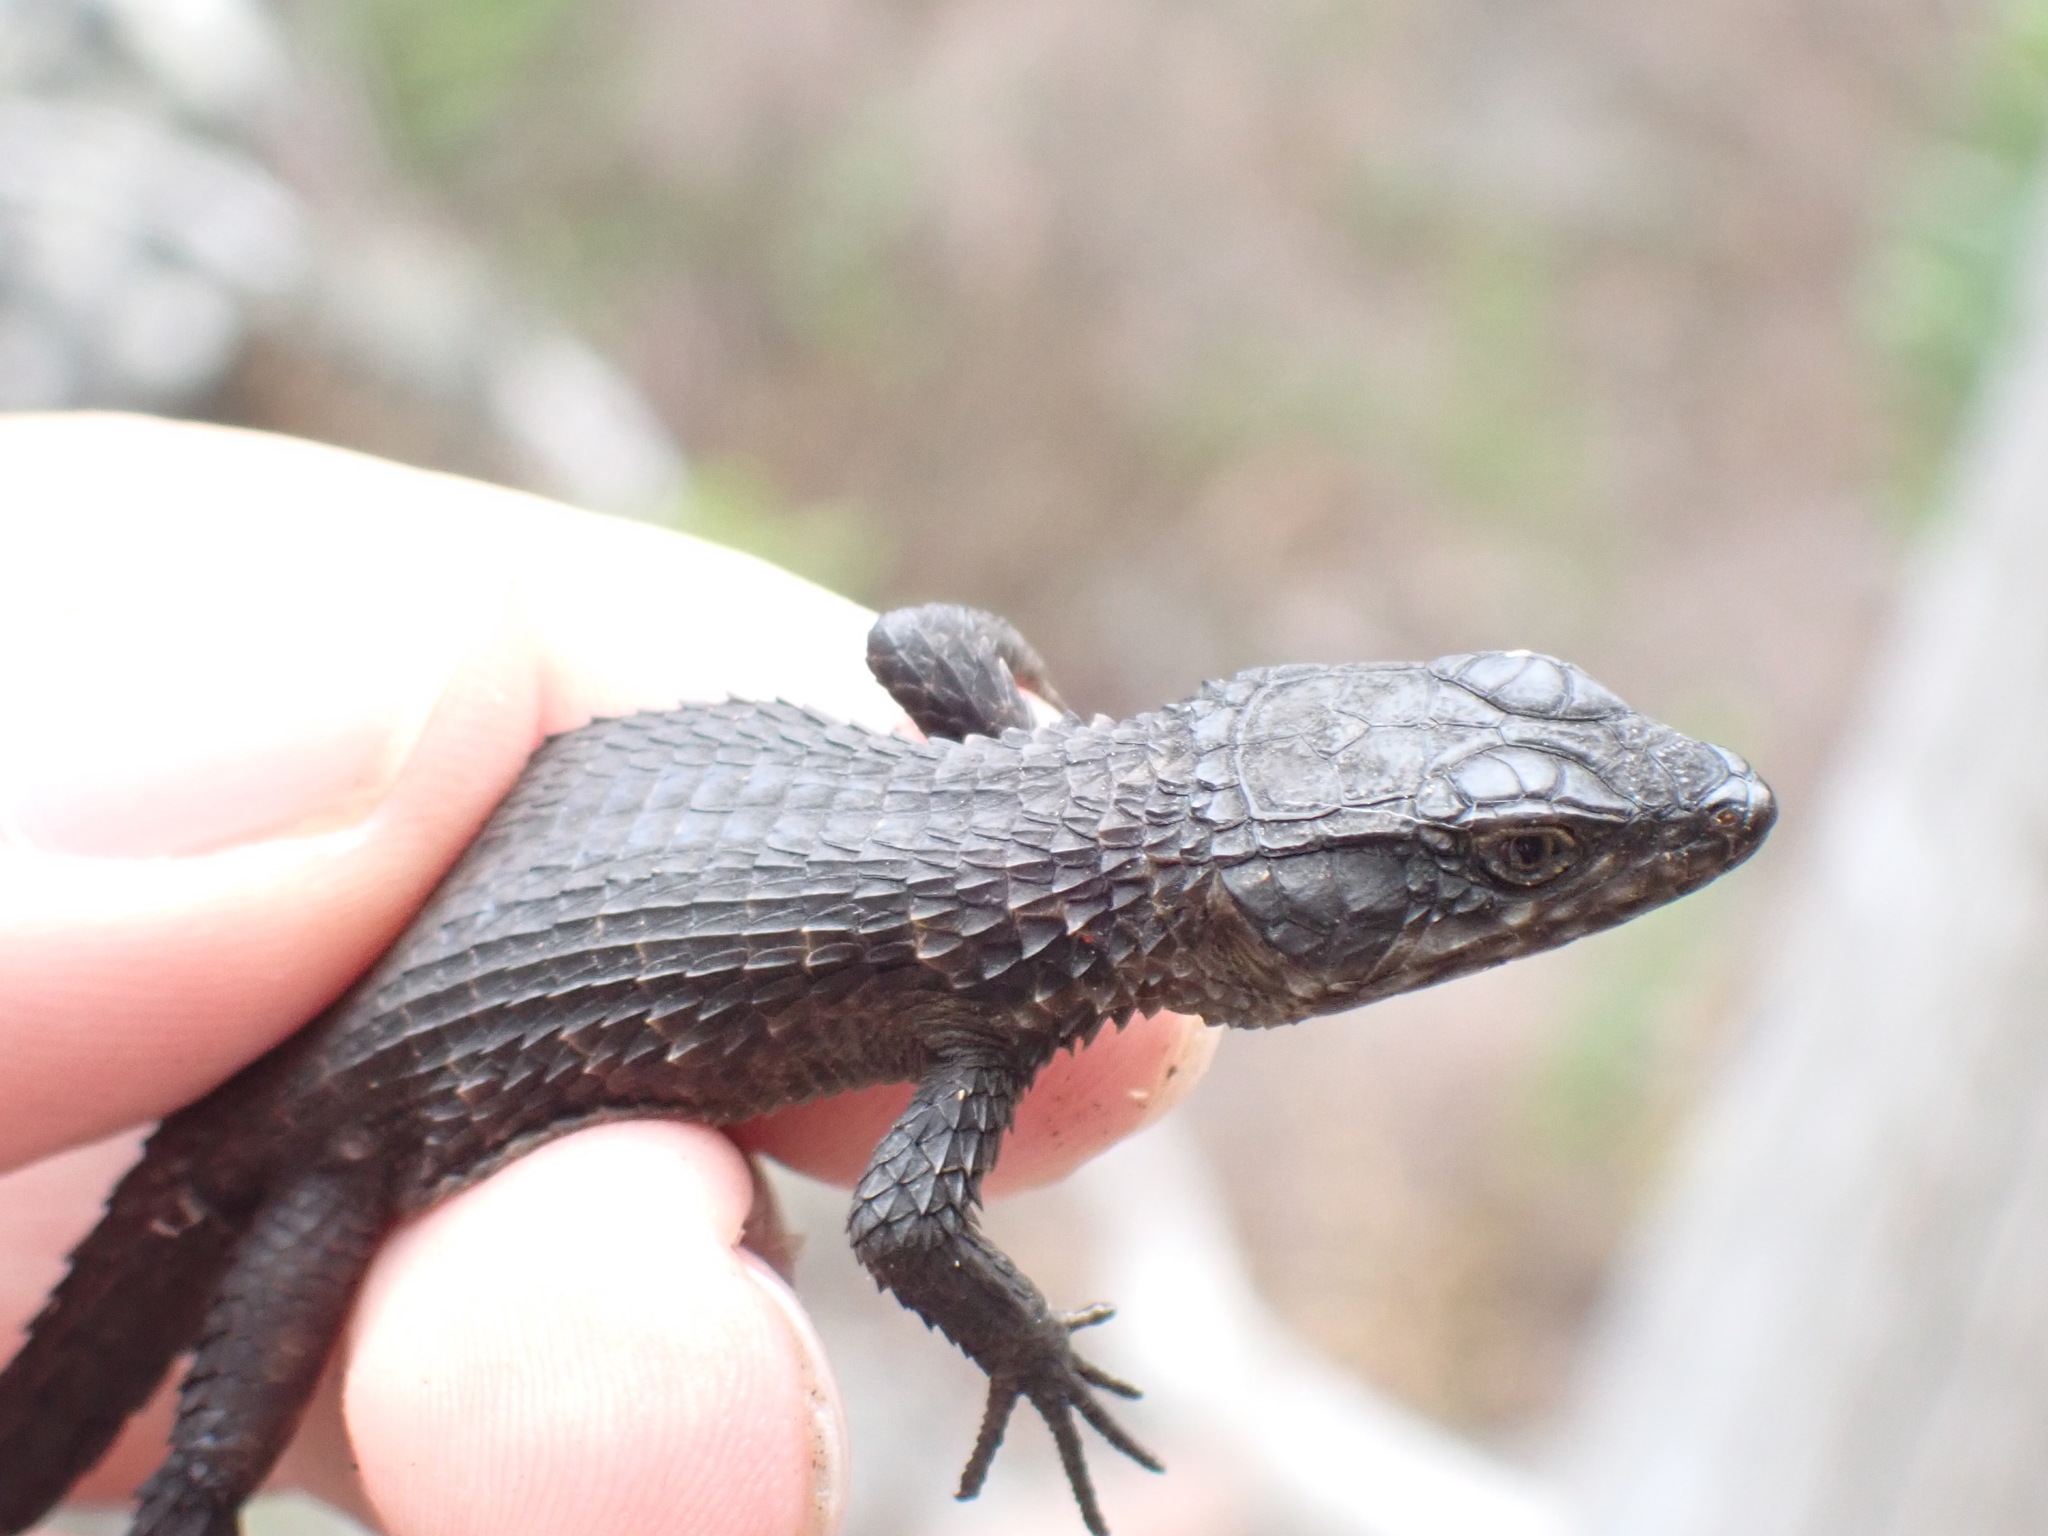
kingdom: Animalia
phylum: Chordata
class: Squamata
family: Cordylidae
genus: Cordylus
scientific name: Cordylus niger
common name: Black girdled lizard
